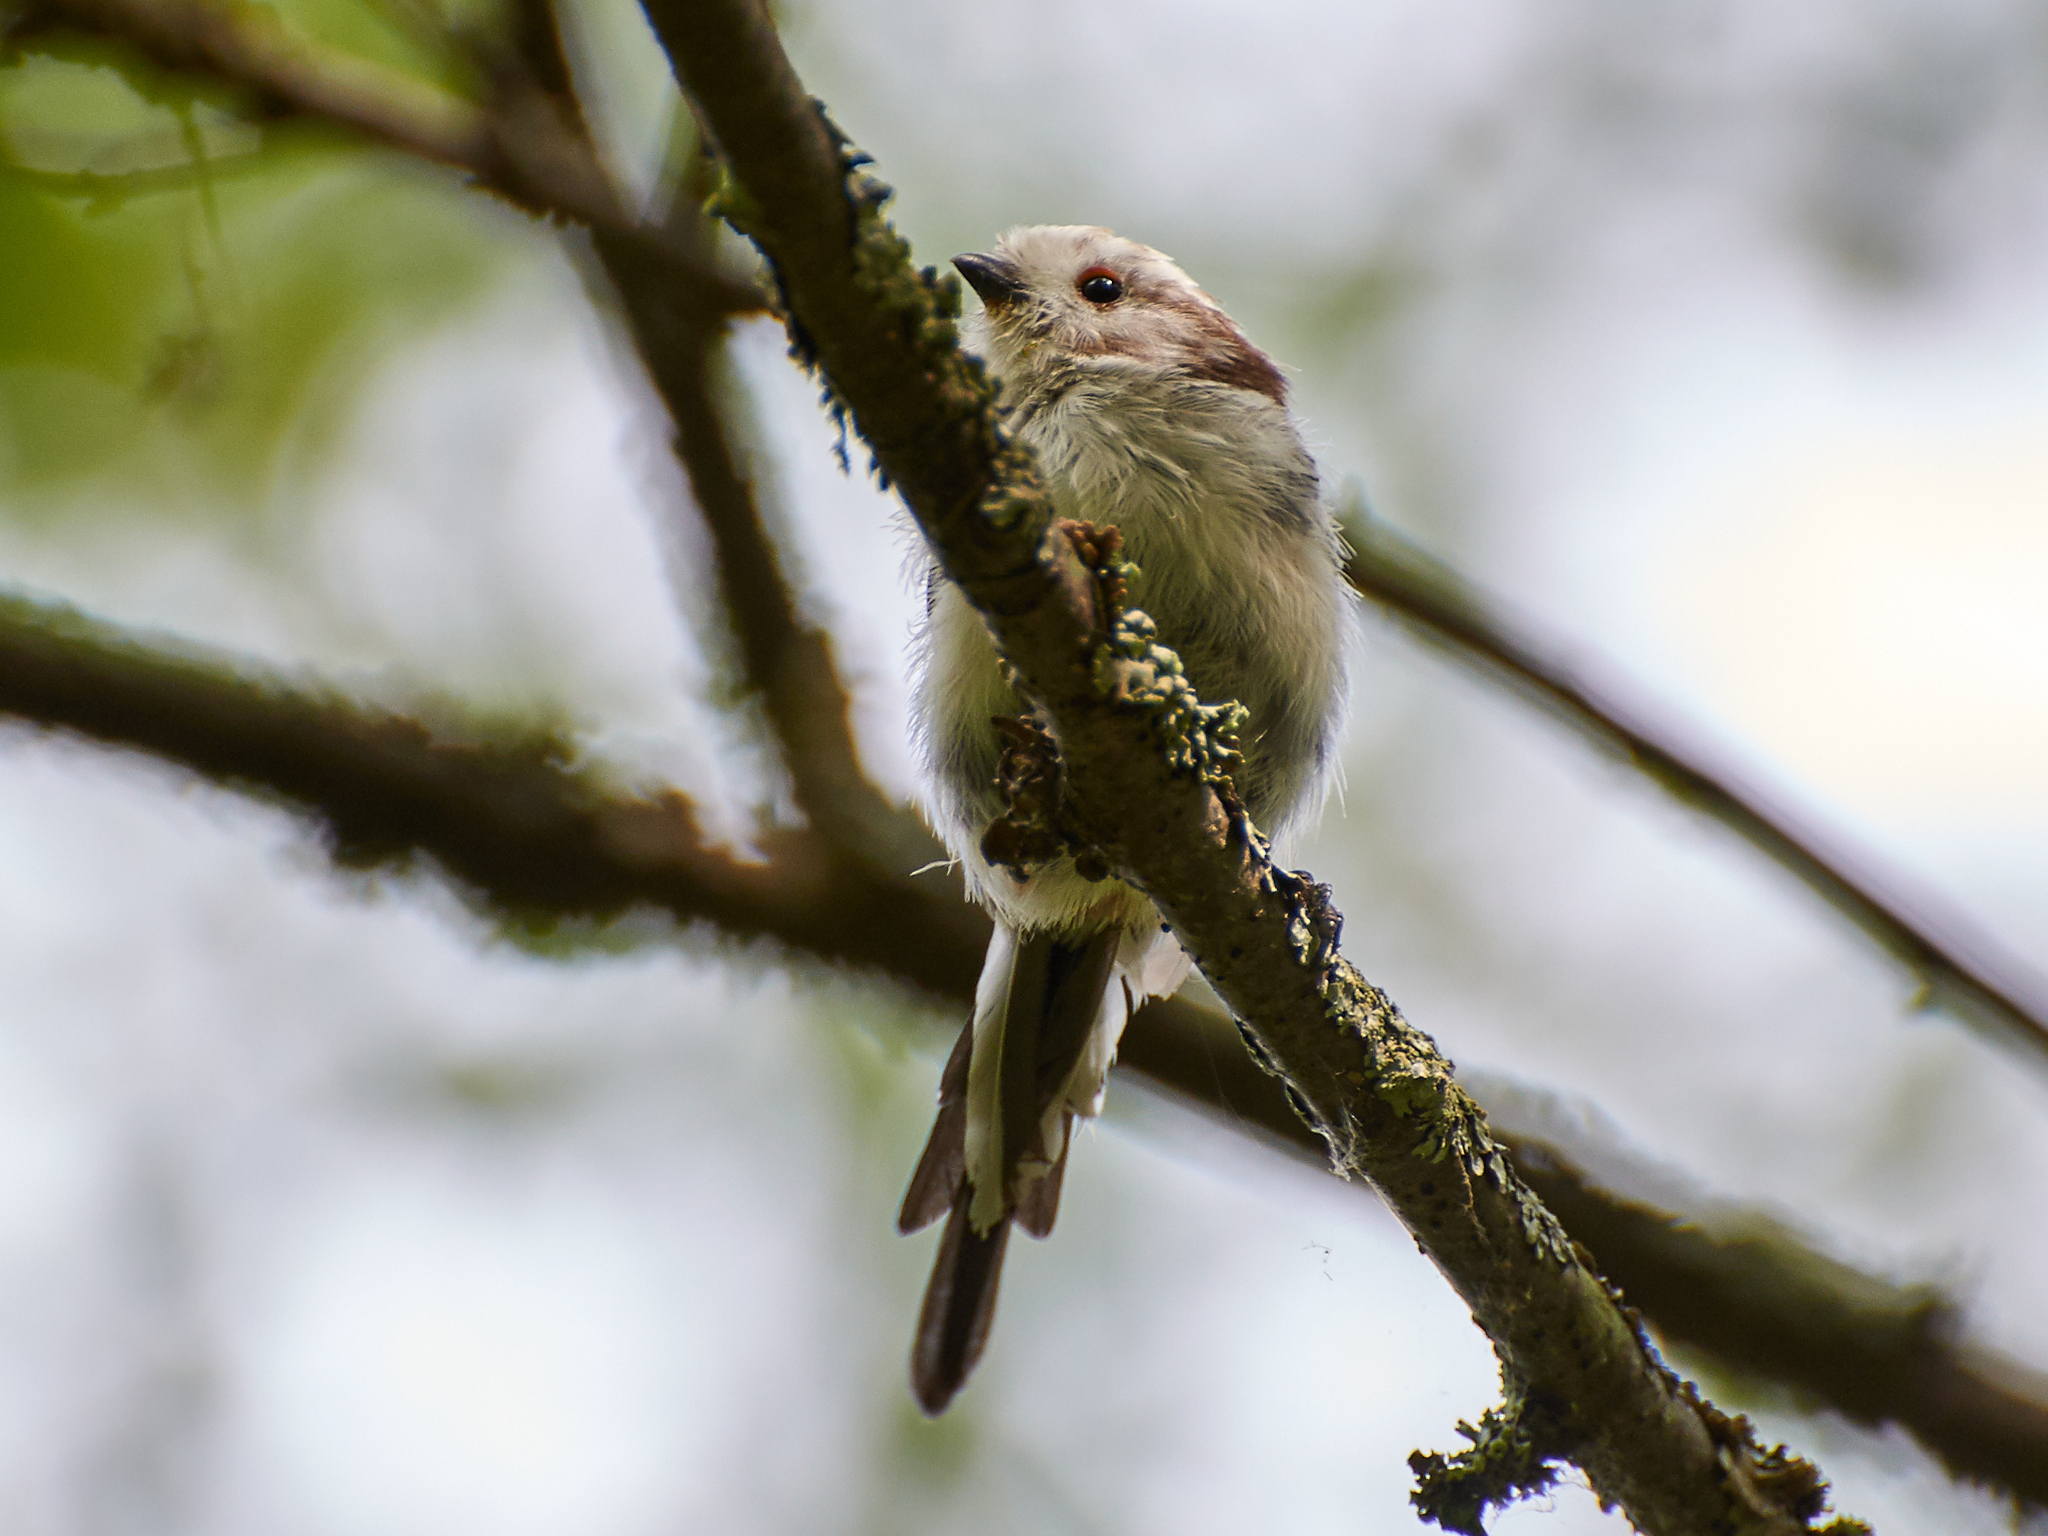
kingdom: Animalia
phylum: Chordata
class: Aves
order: Passeriformes
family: Aegithalidae
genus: Aegithalos
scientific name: Aegithalos caudatus
